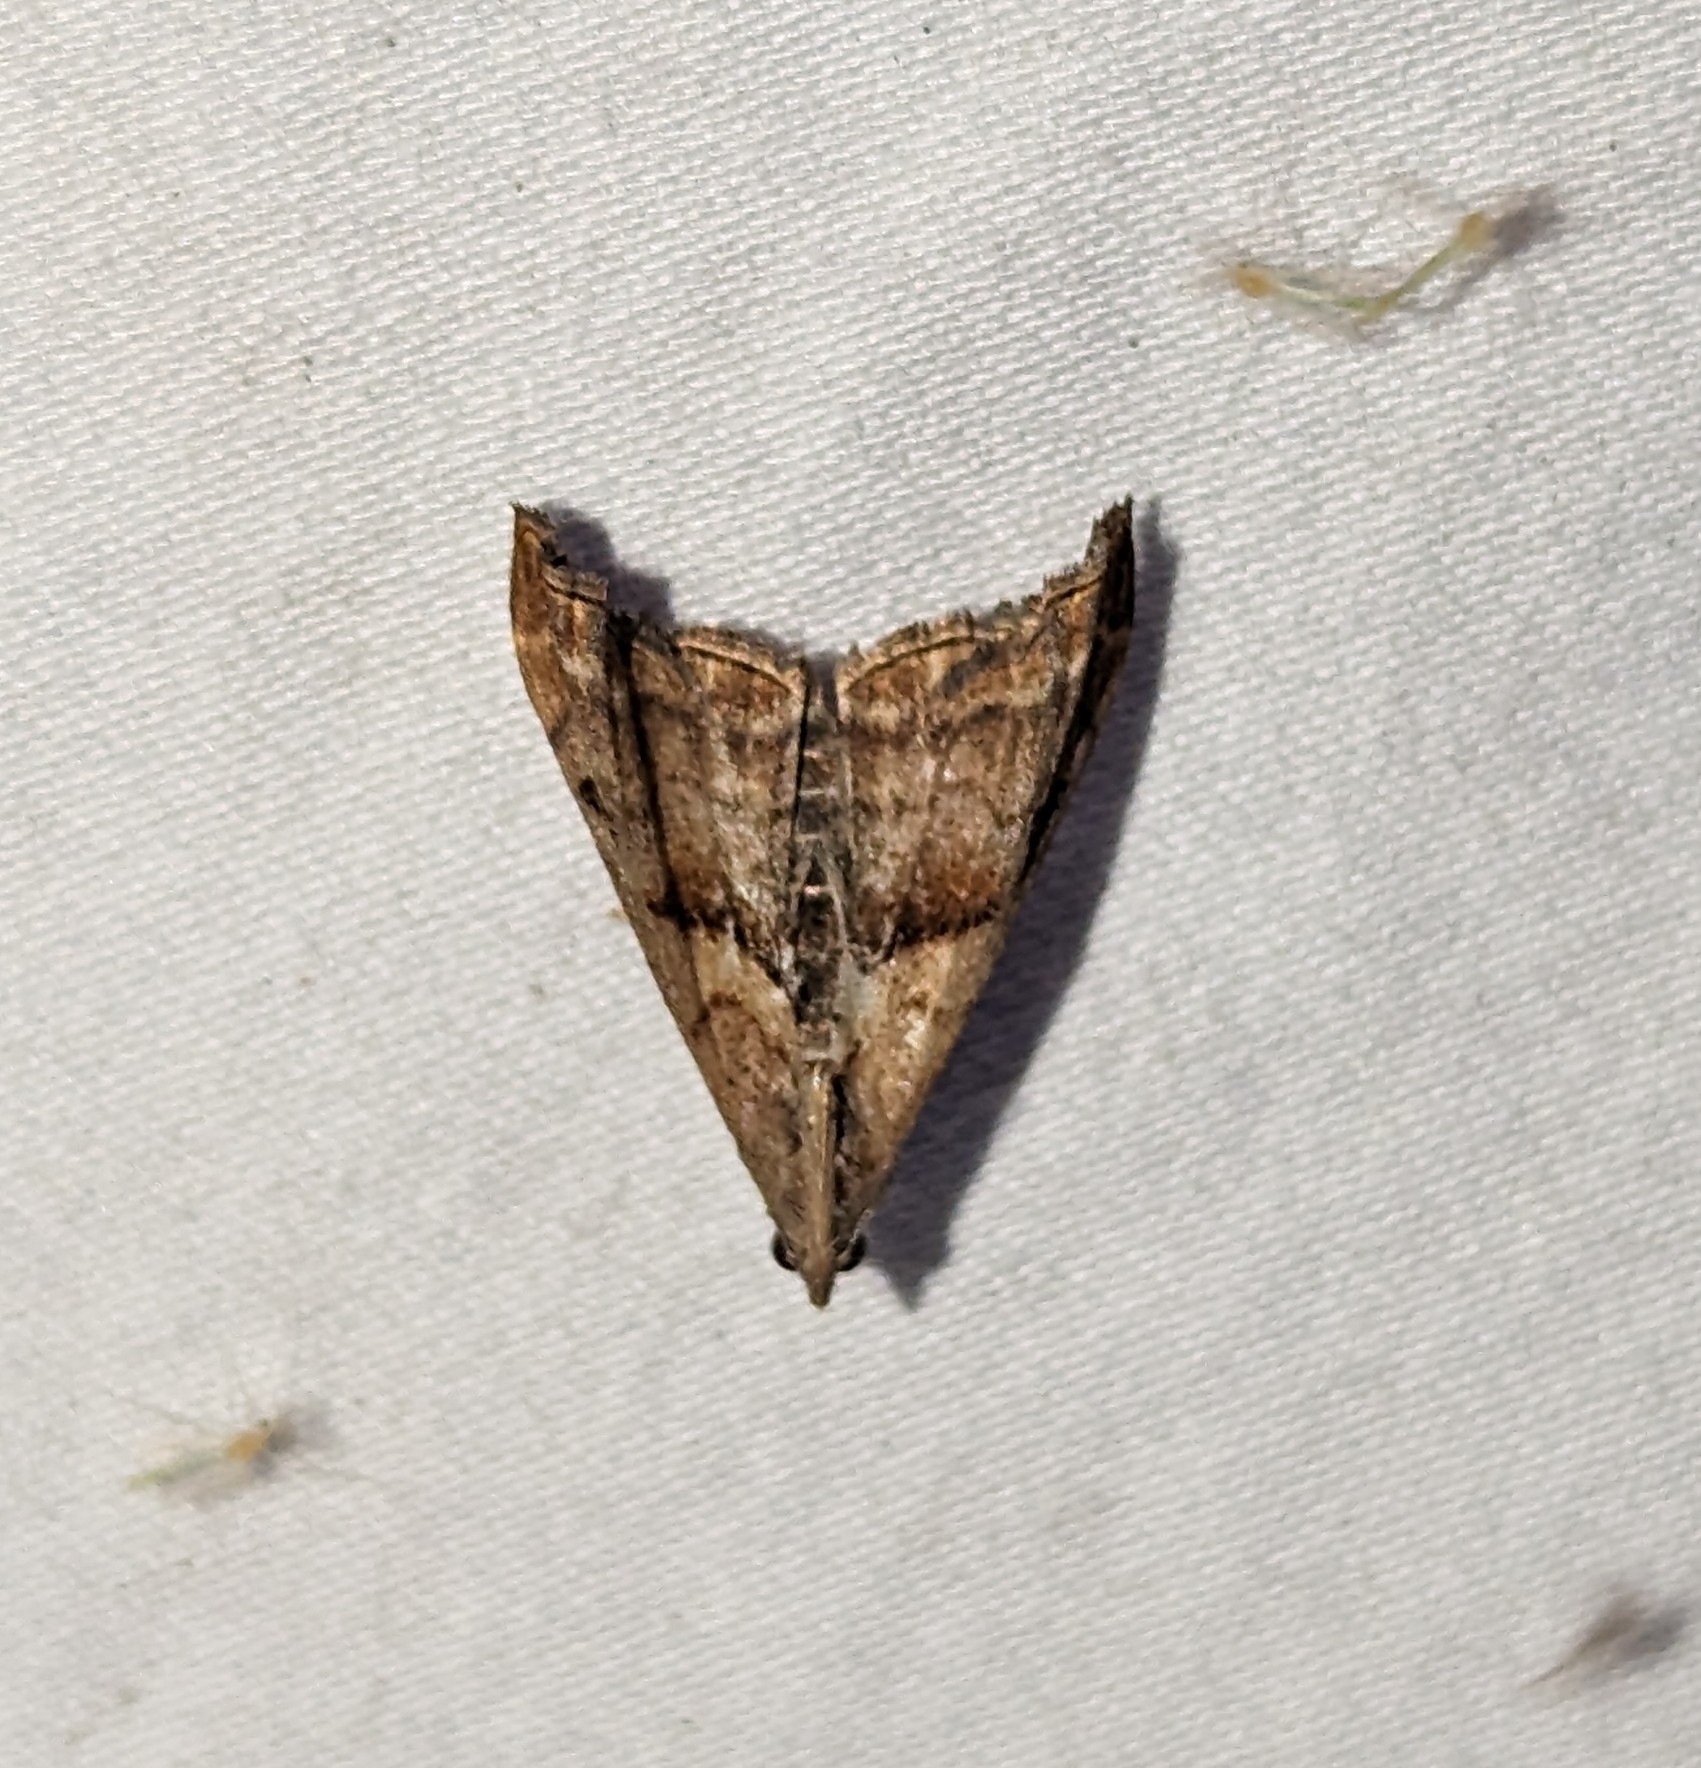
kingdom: Animalia
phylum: Arthropoda
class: Insecta
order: Lepidoptera
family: Erebidae
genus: Palthis
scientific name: Palthis angulalis
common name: Dark-spotted palthis moth
